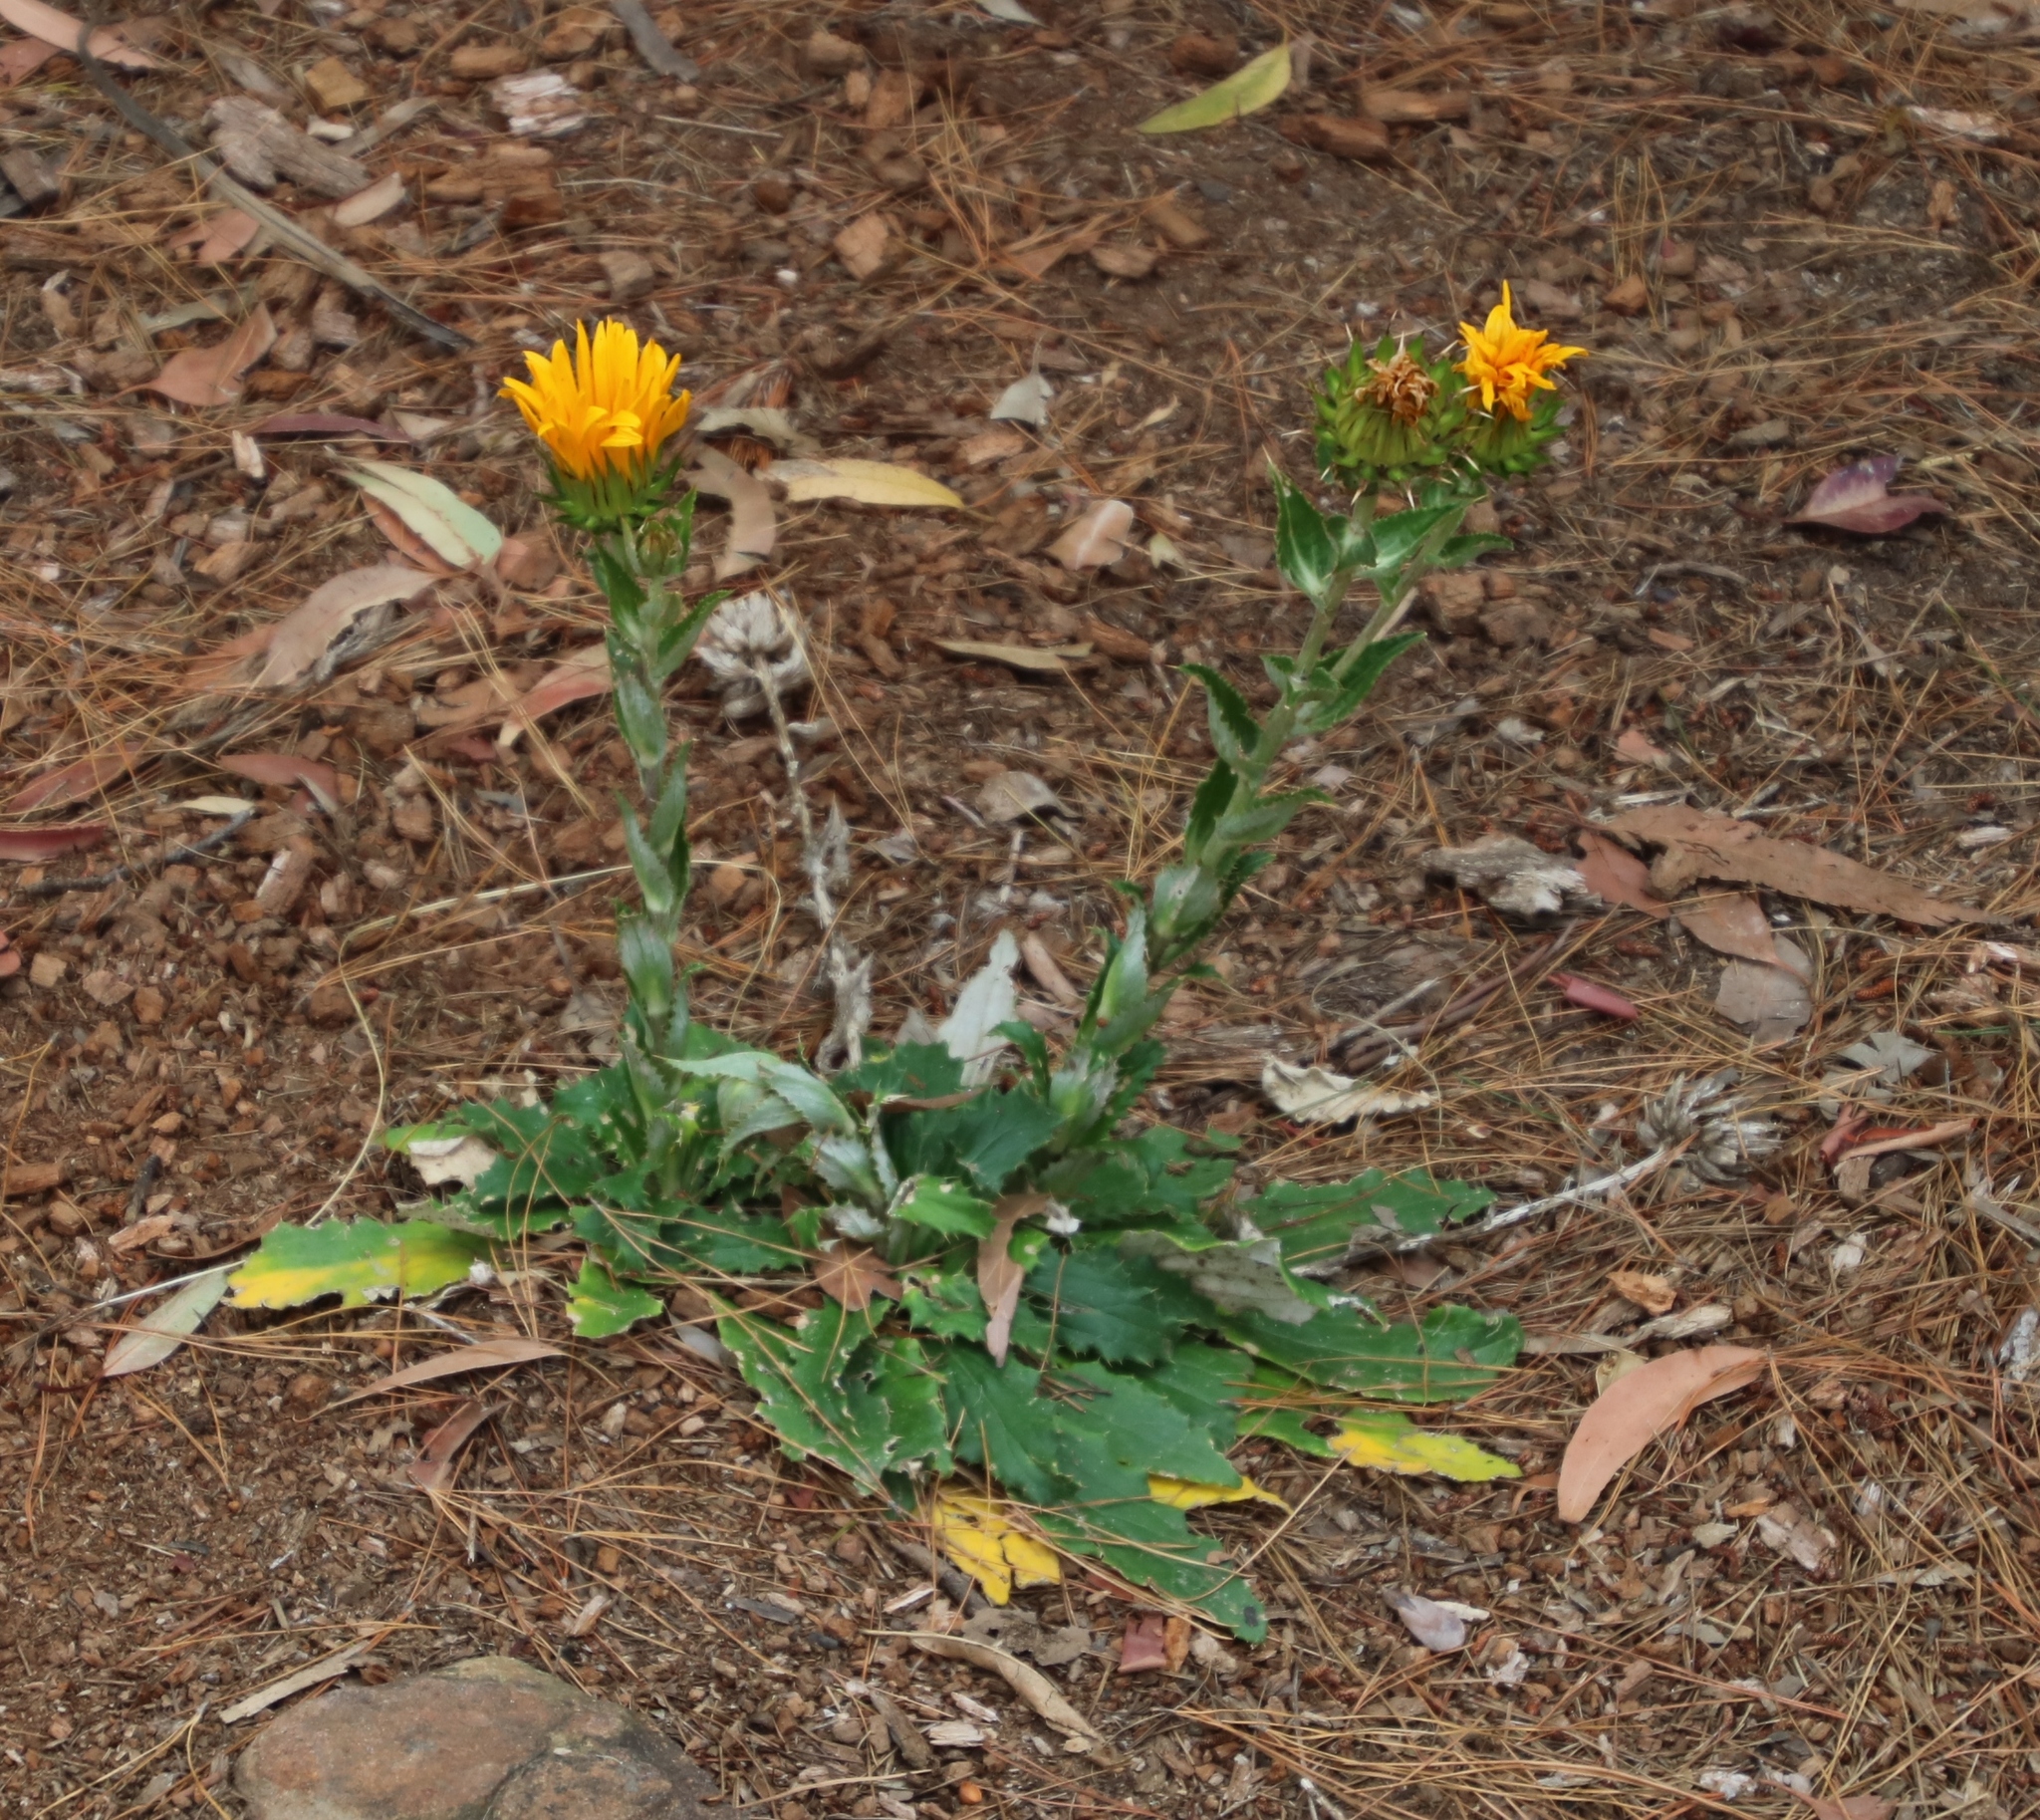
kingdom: Plantae
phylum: Tracheophyta
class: Magnoliopsida
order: Asterales
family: Asteraceae
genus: Berkheya
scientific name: Berkheya armata
